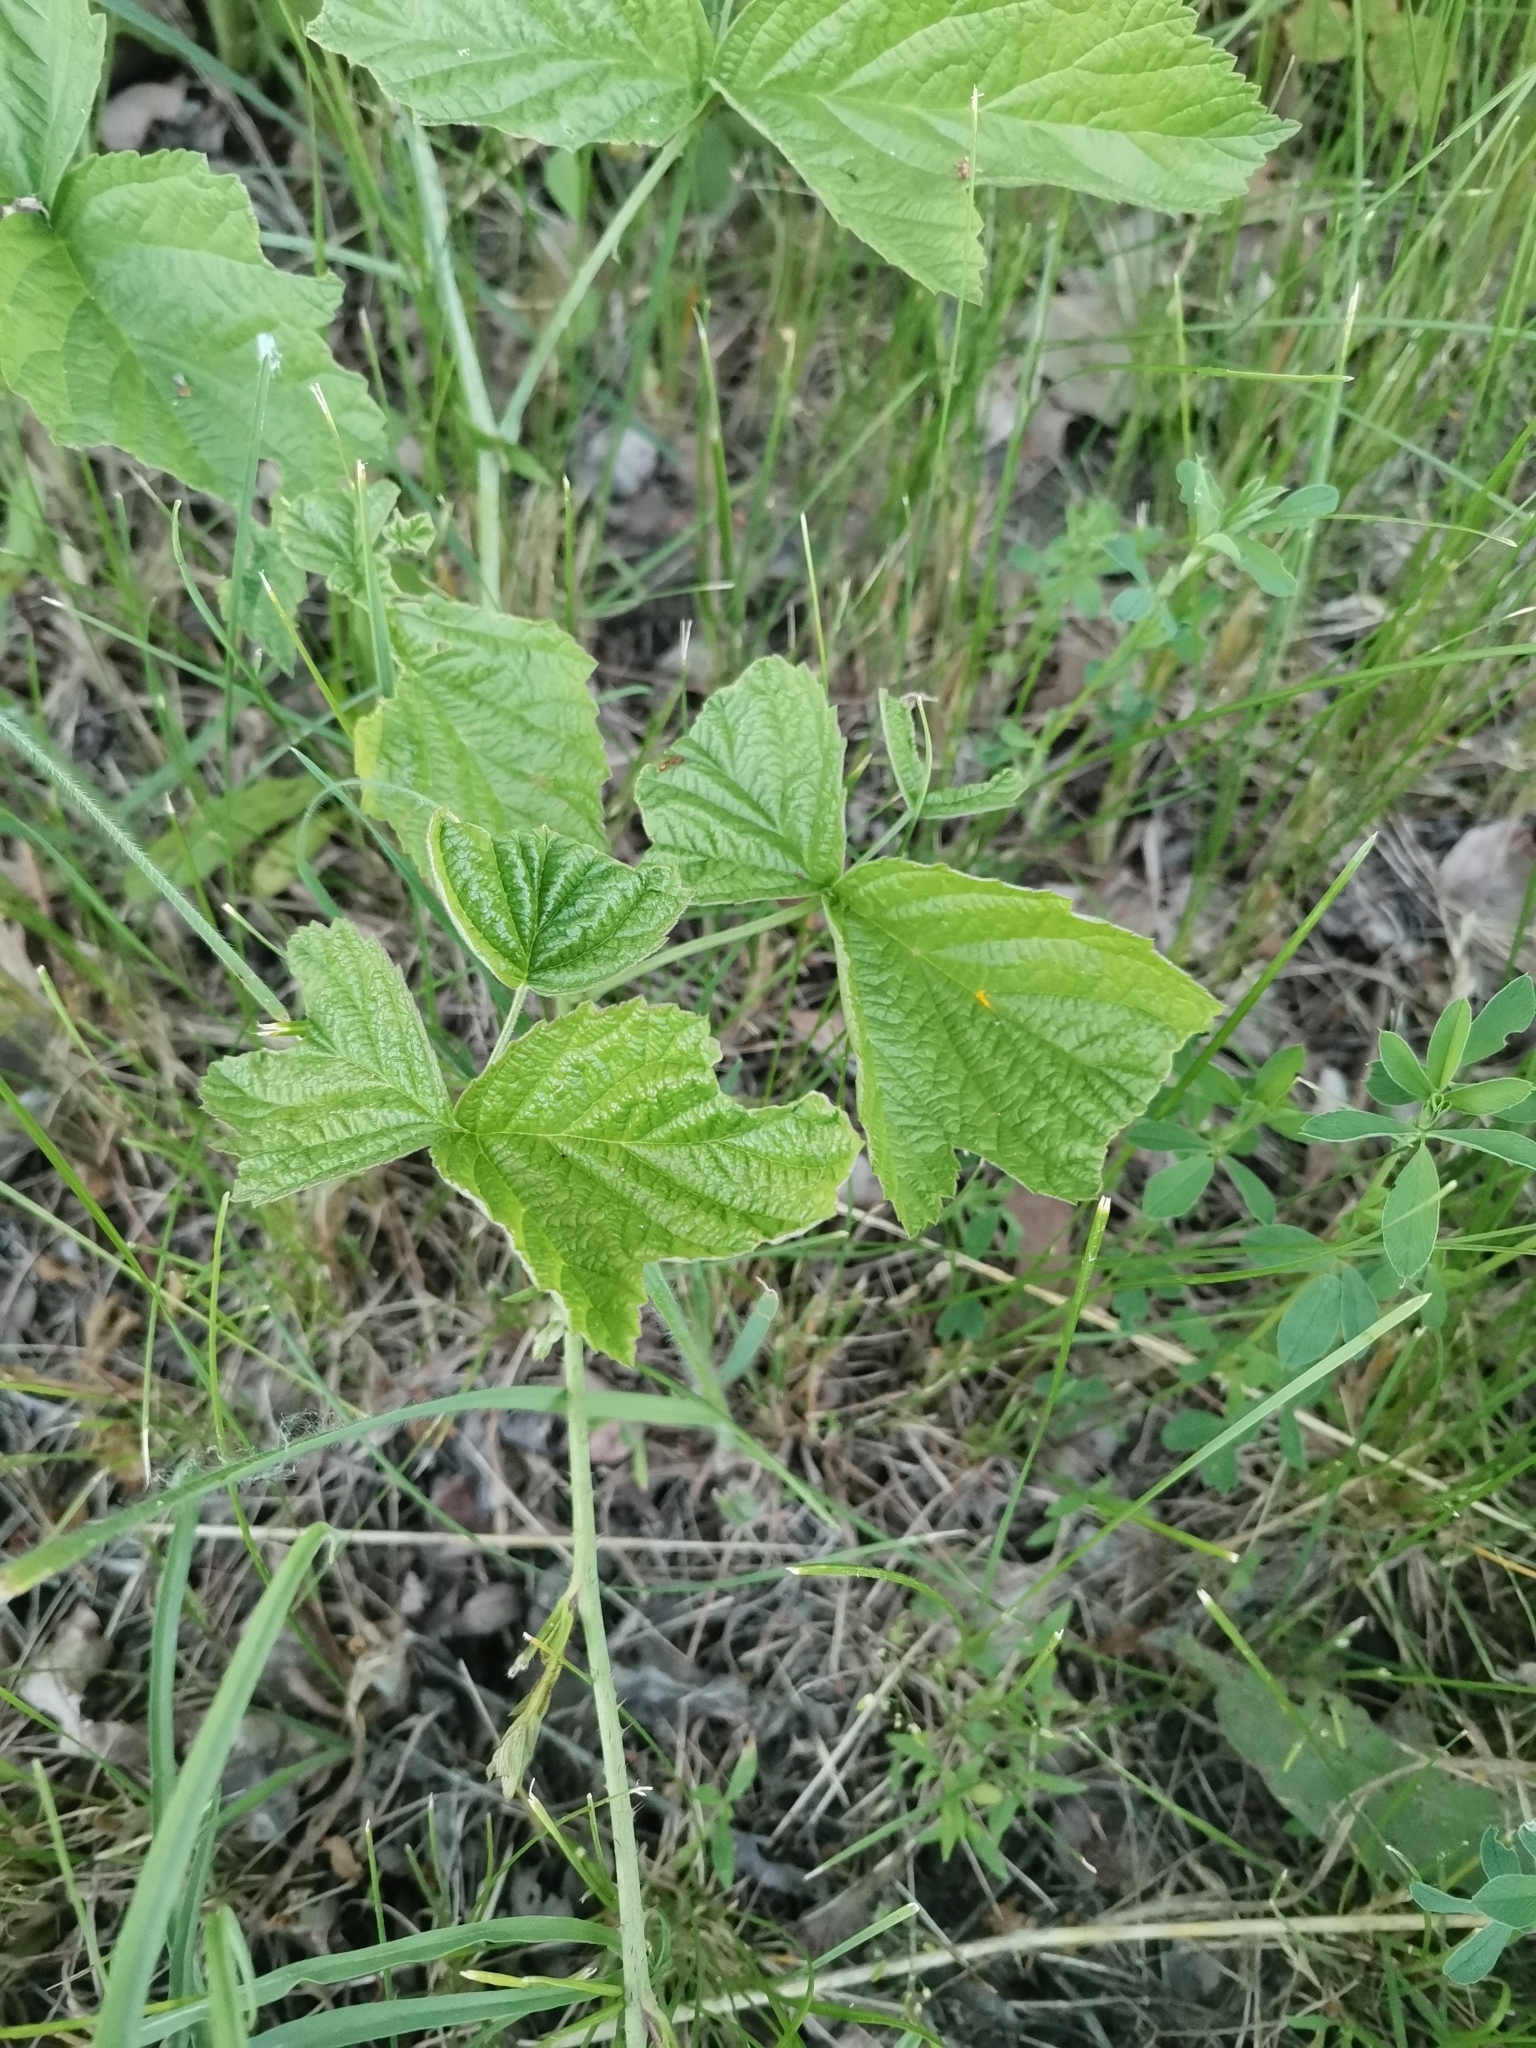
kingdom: Plantae
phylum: Tracheophyta
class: Magnoliopsida
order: Rosales
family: Rosaceae
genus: Rubus
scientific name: Rubus caesius
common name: Dewberry
